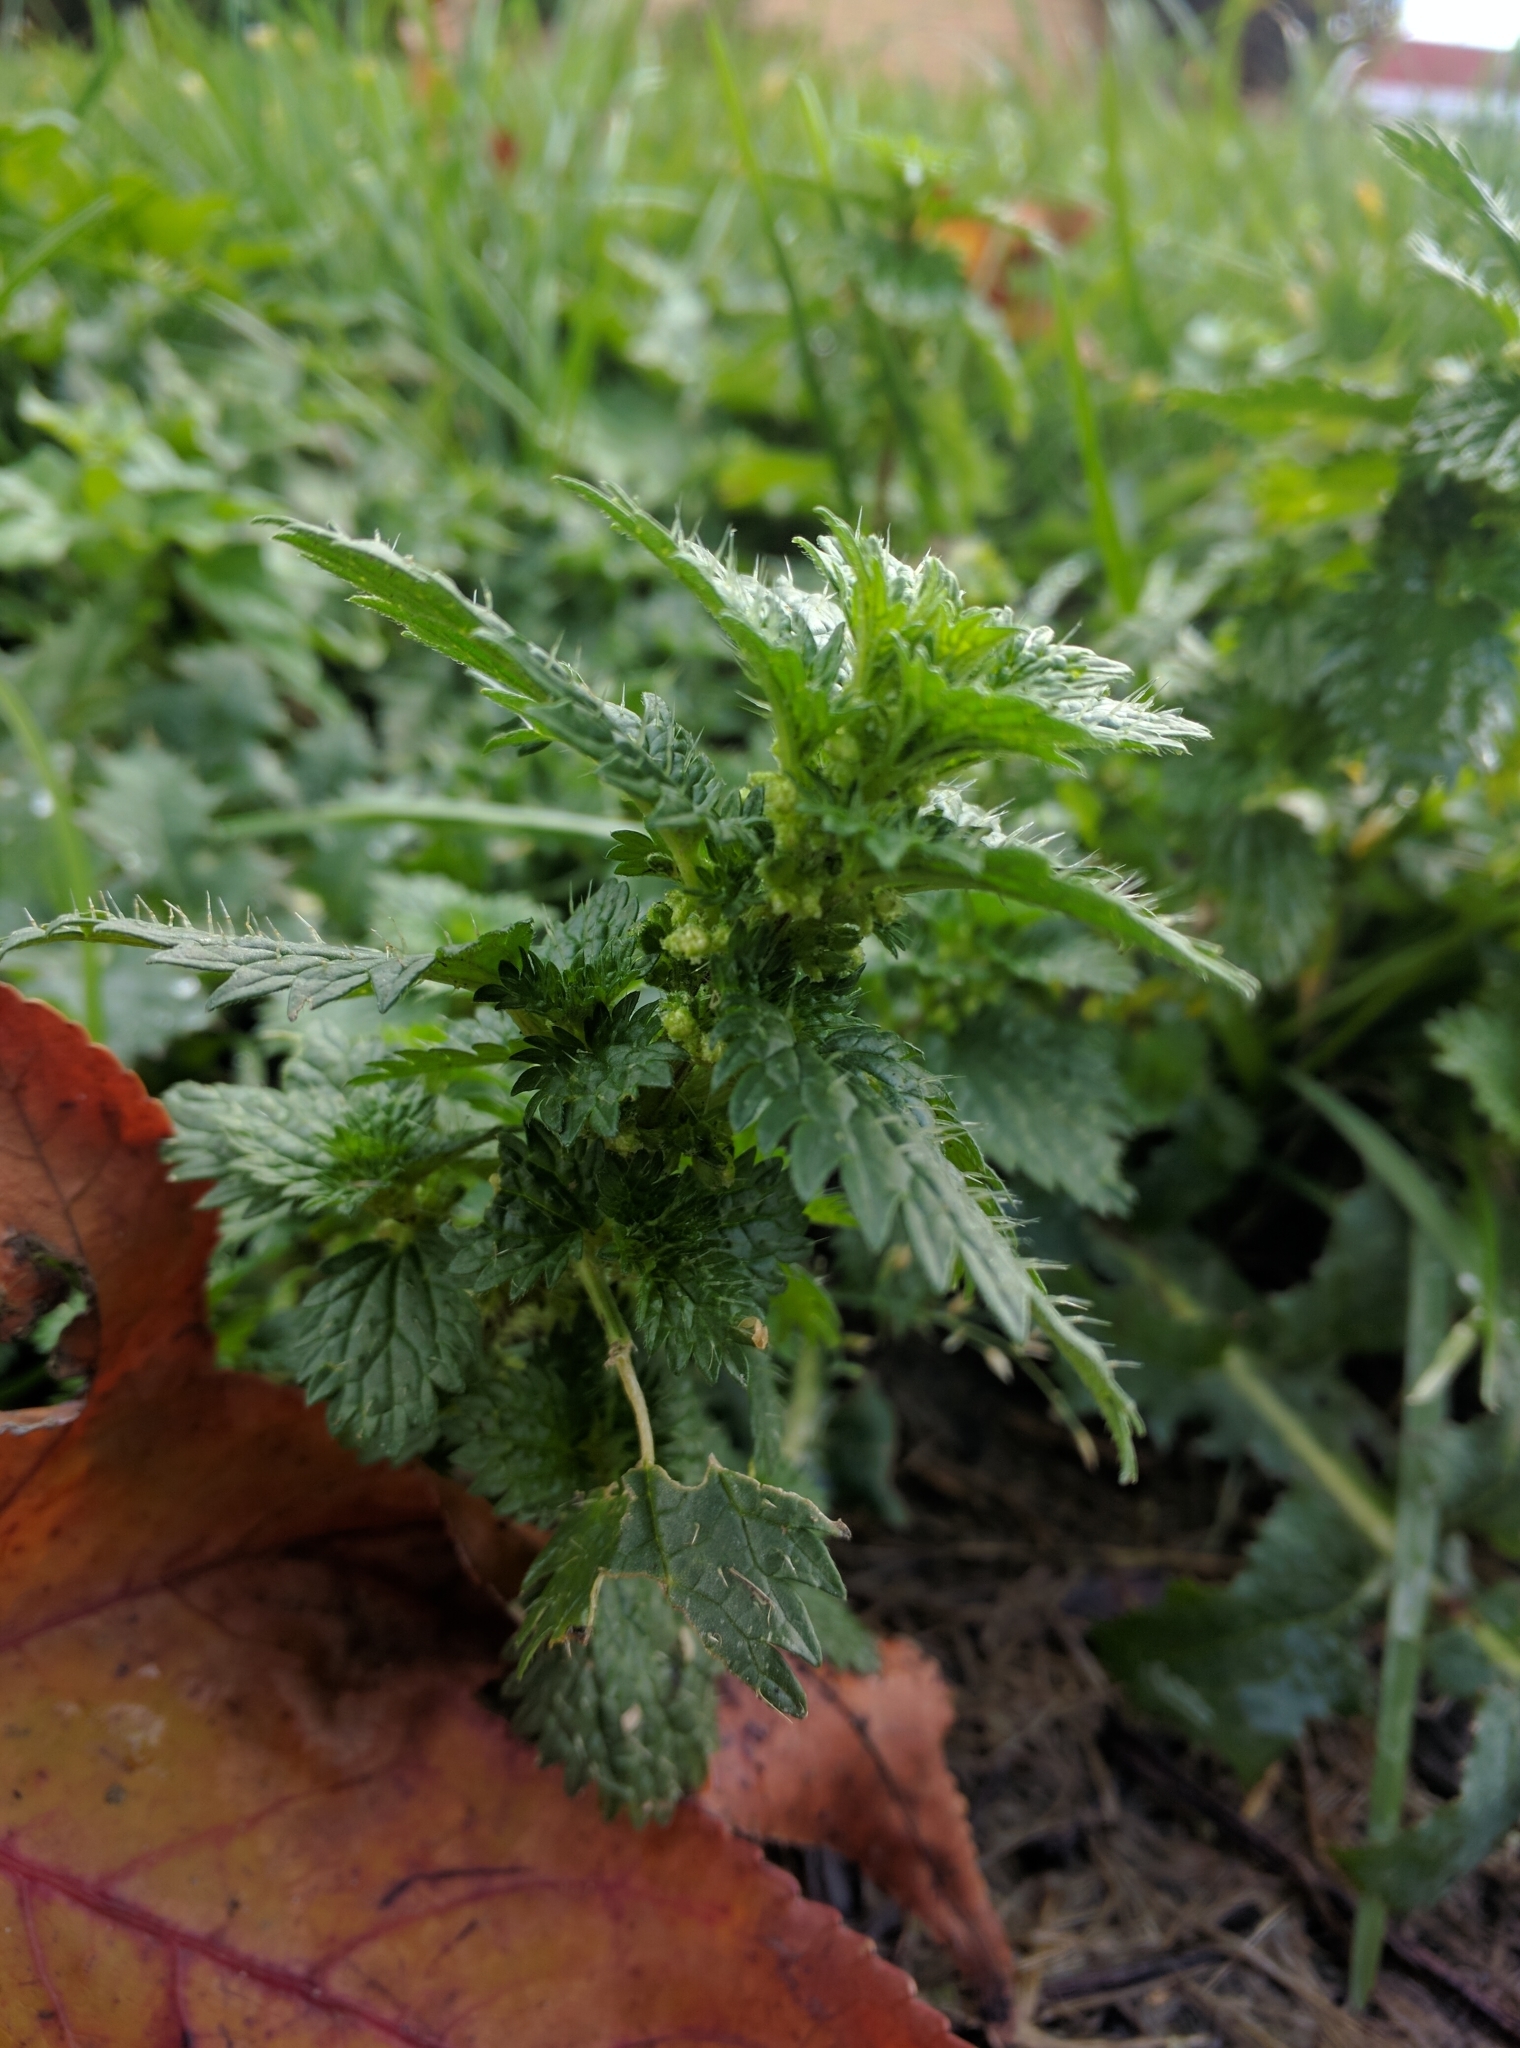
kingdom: Plantae
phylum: Tracheophyta
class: Magnoliopsida
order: Rosales
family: Urticaceae
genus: Urtica
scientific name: Urtica urens
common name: Dwarf nettle
